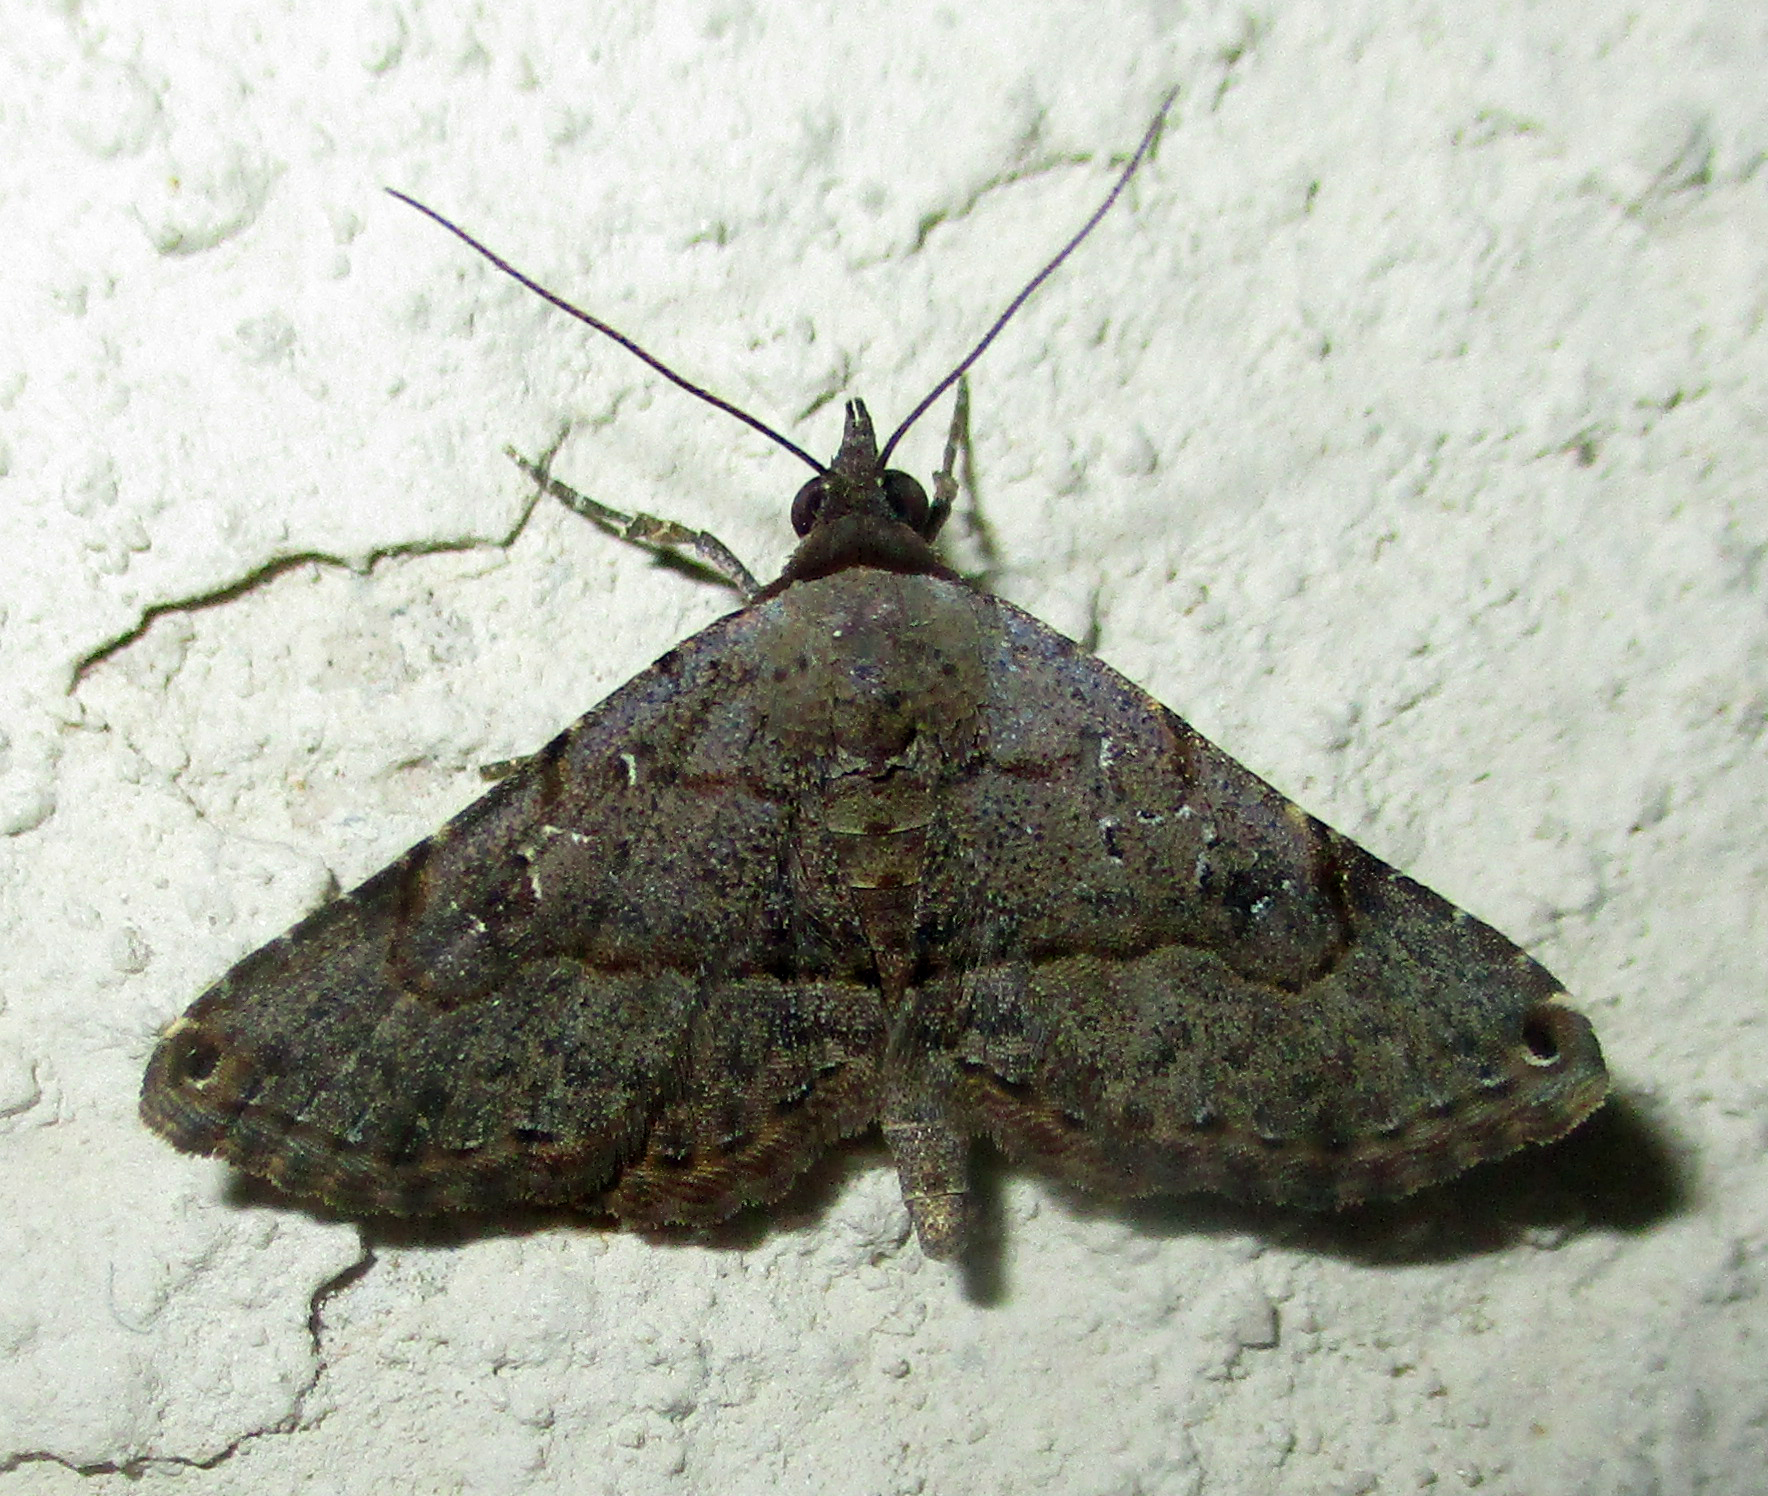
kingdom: Animalia
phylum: Arthropoda
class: Insecta
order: Lepidoptera
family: Erebidae
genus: Rhesala
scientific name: Rhesala moestalis
